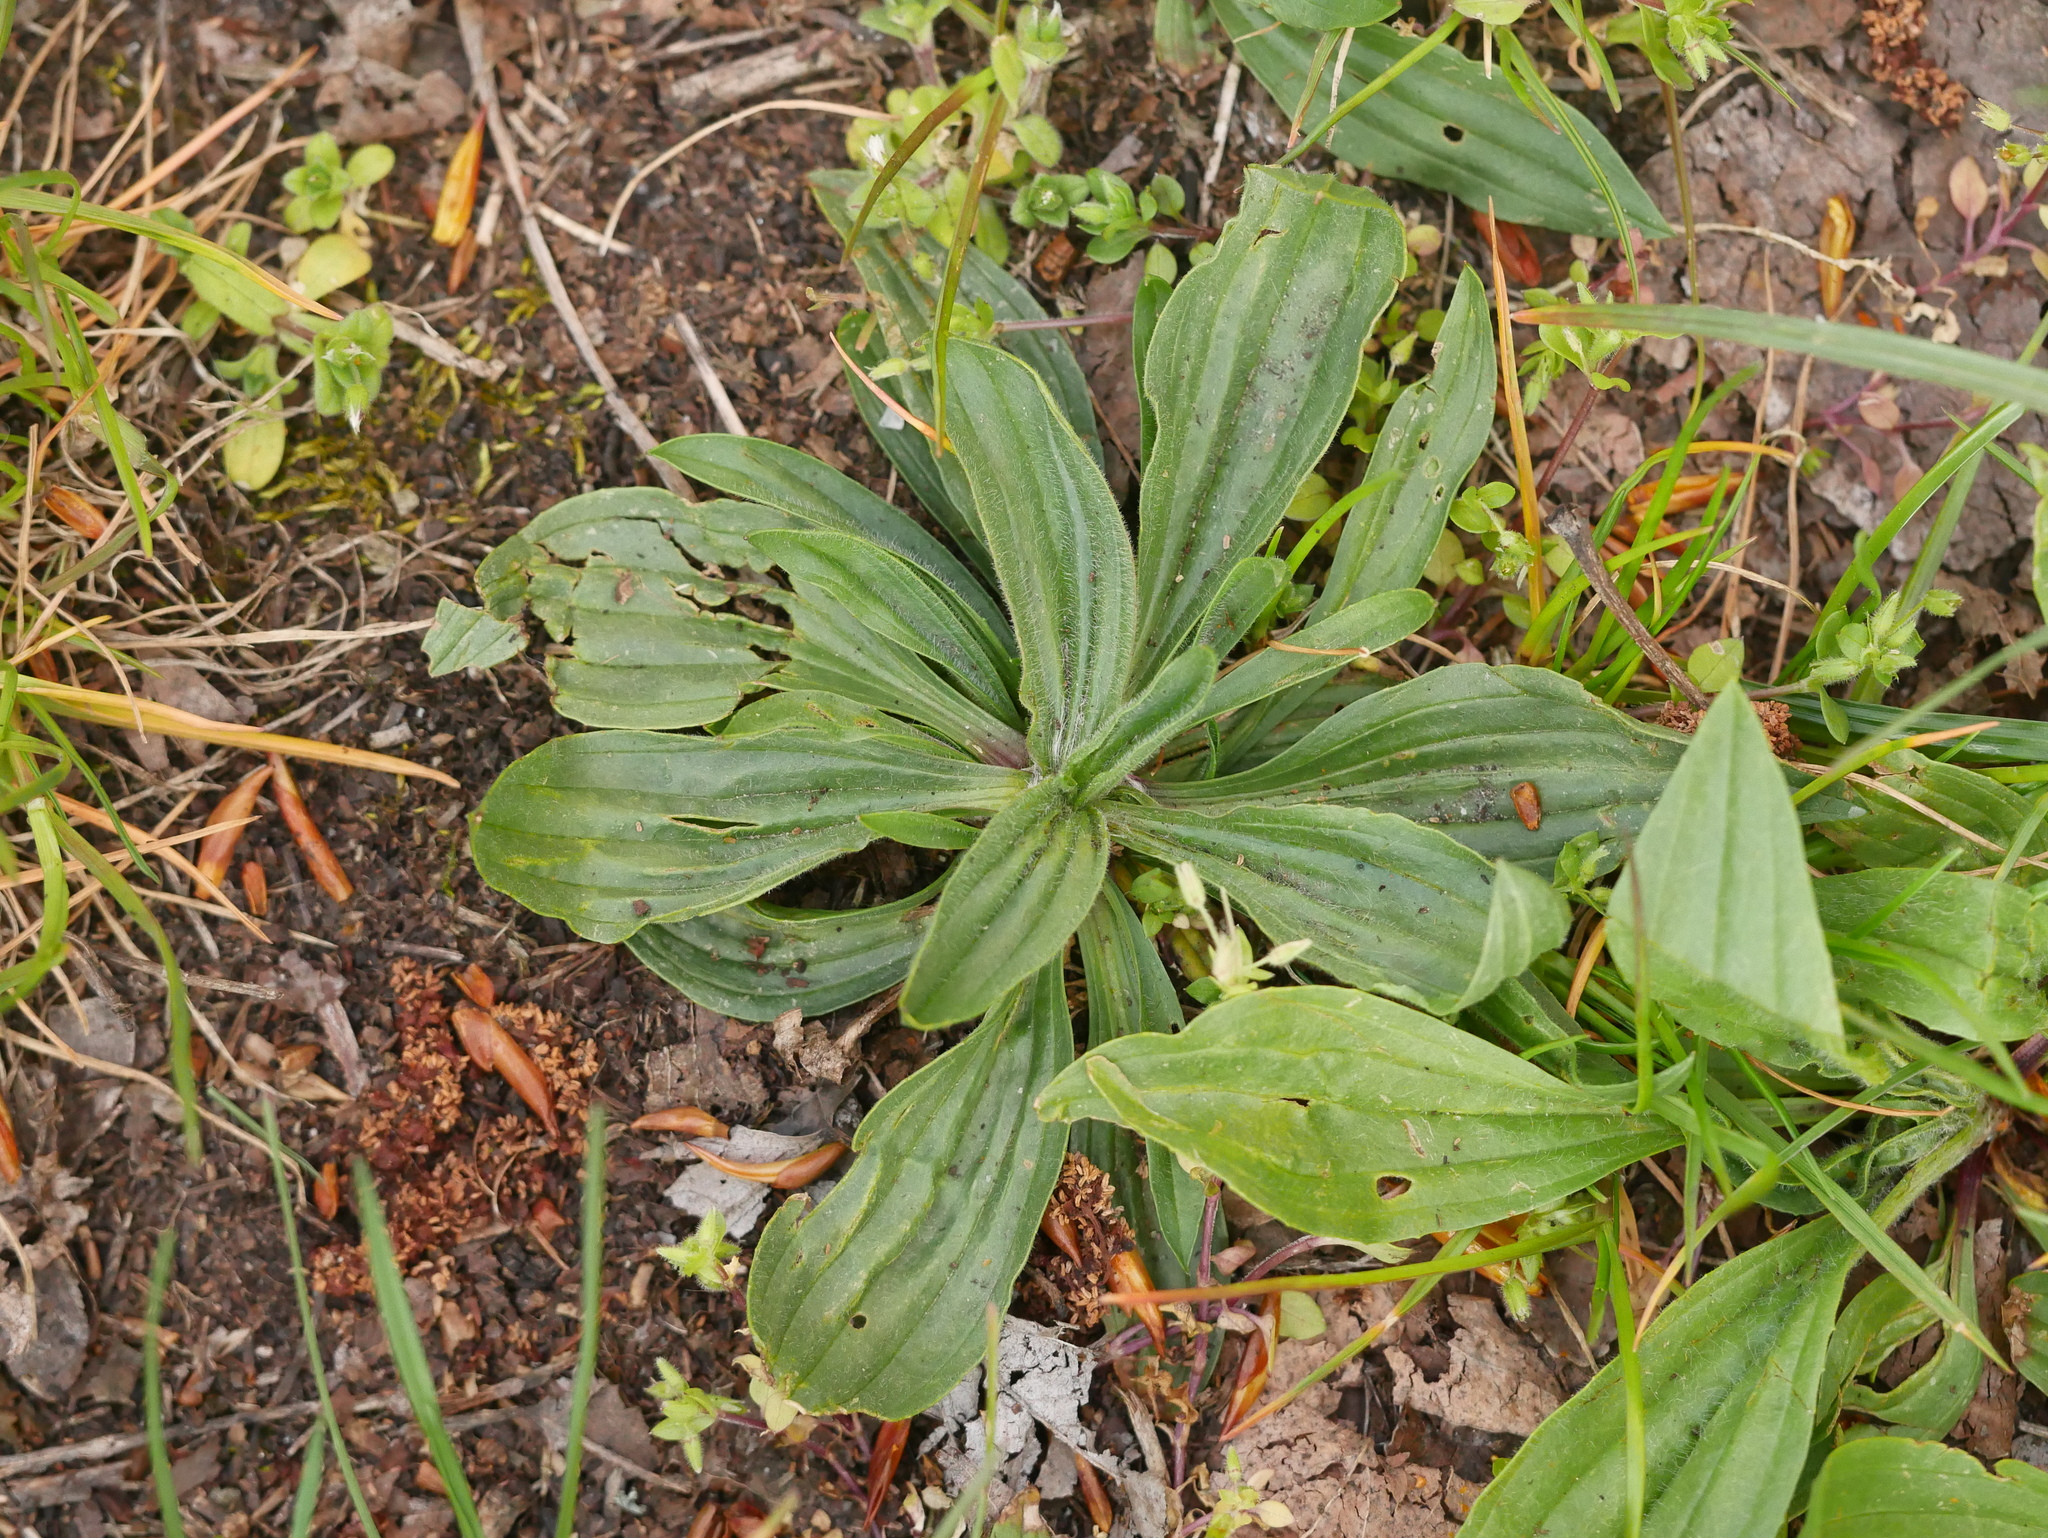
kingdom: Plantae
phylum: Tracheophyta
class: Magnoliopsida
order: Lamiales
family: Plantaginaceae
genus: Plantago
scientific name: Plantago lanceolata
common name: Ribwort plantain
